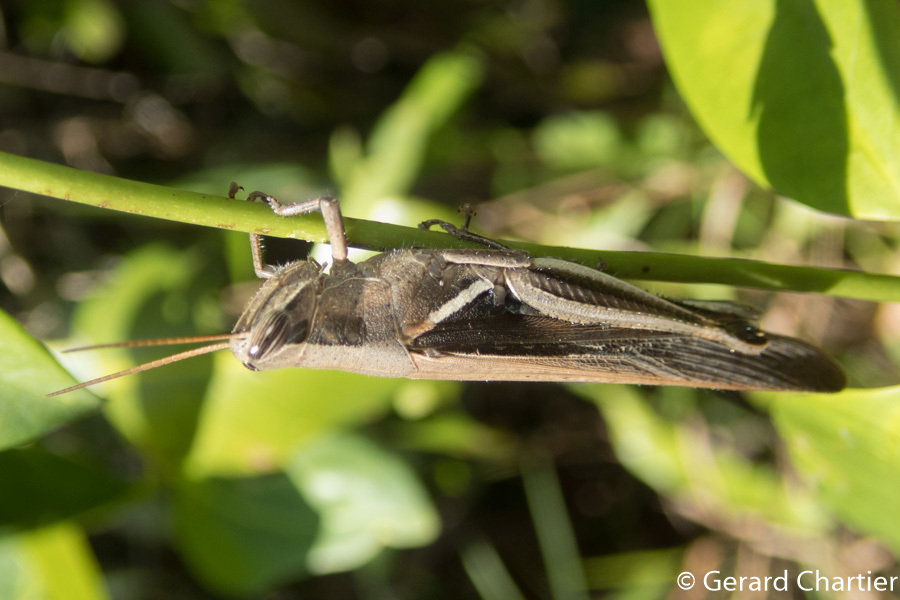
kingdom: Animalia
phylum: Arthropoda
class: Insecta
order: Orthoptera
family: Acrididae
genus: Stenocatantops
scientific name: Stenocatantops splendens
